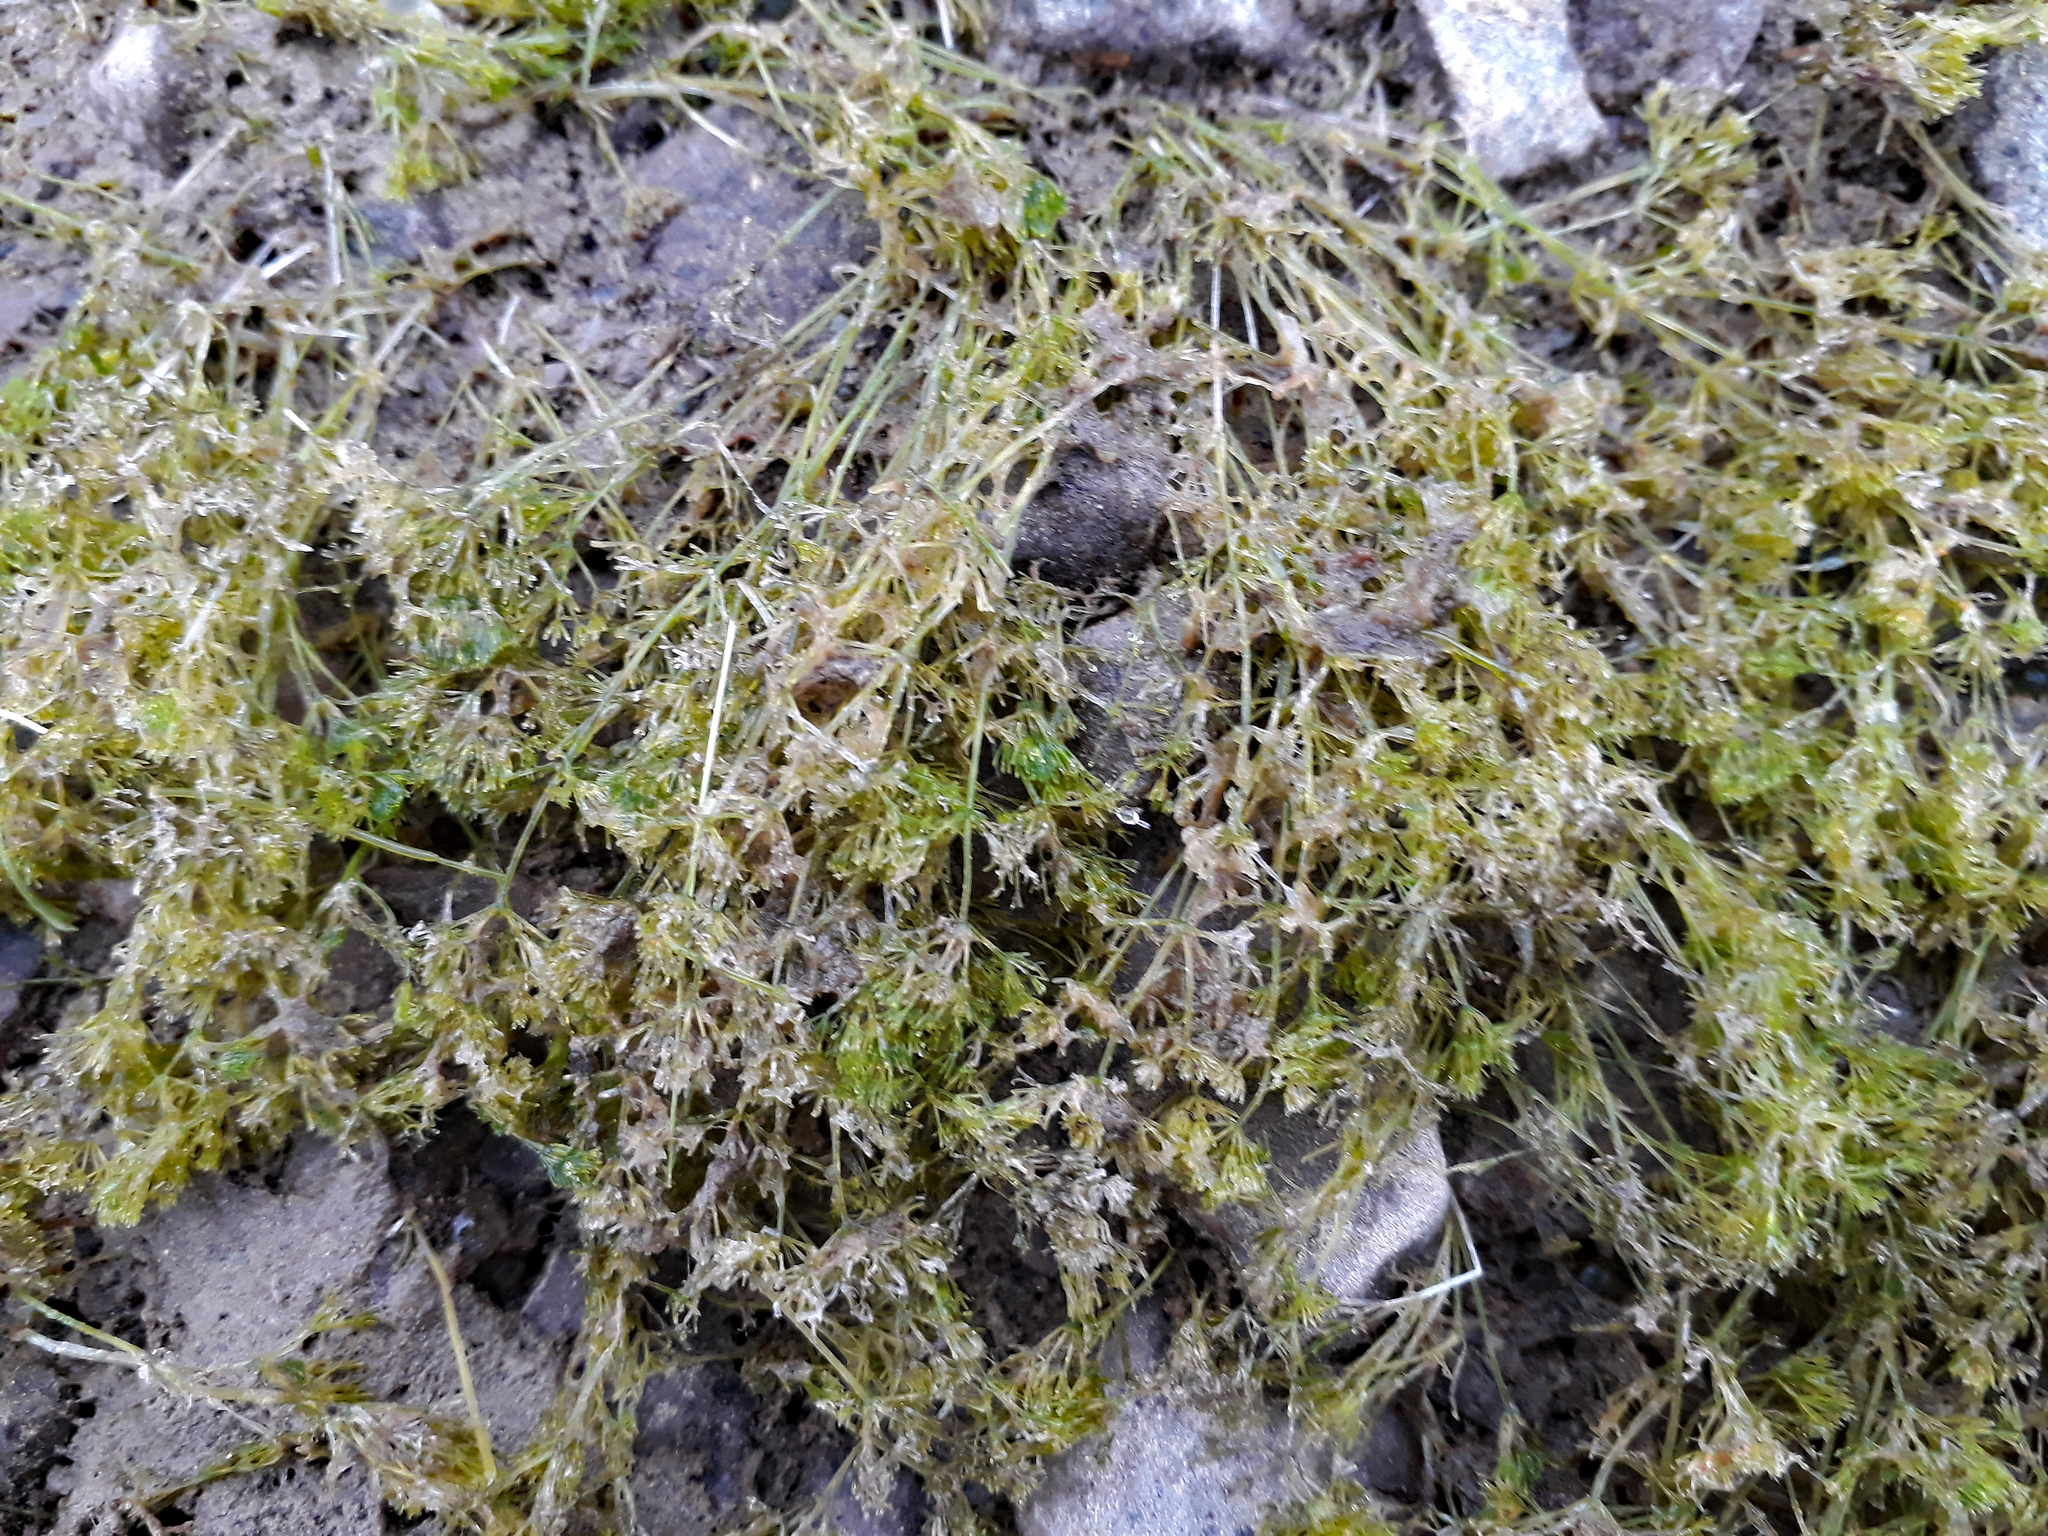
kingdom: Plantae
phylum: Charophyta
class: Charophyceae
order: Charales
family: Characeae
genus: Nitella
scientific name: Nitella pseudoflabellata
